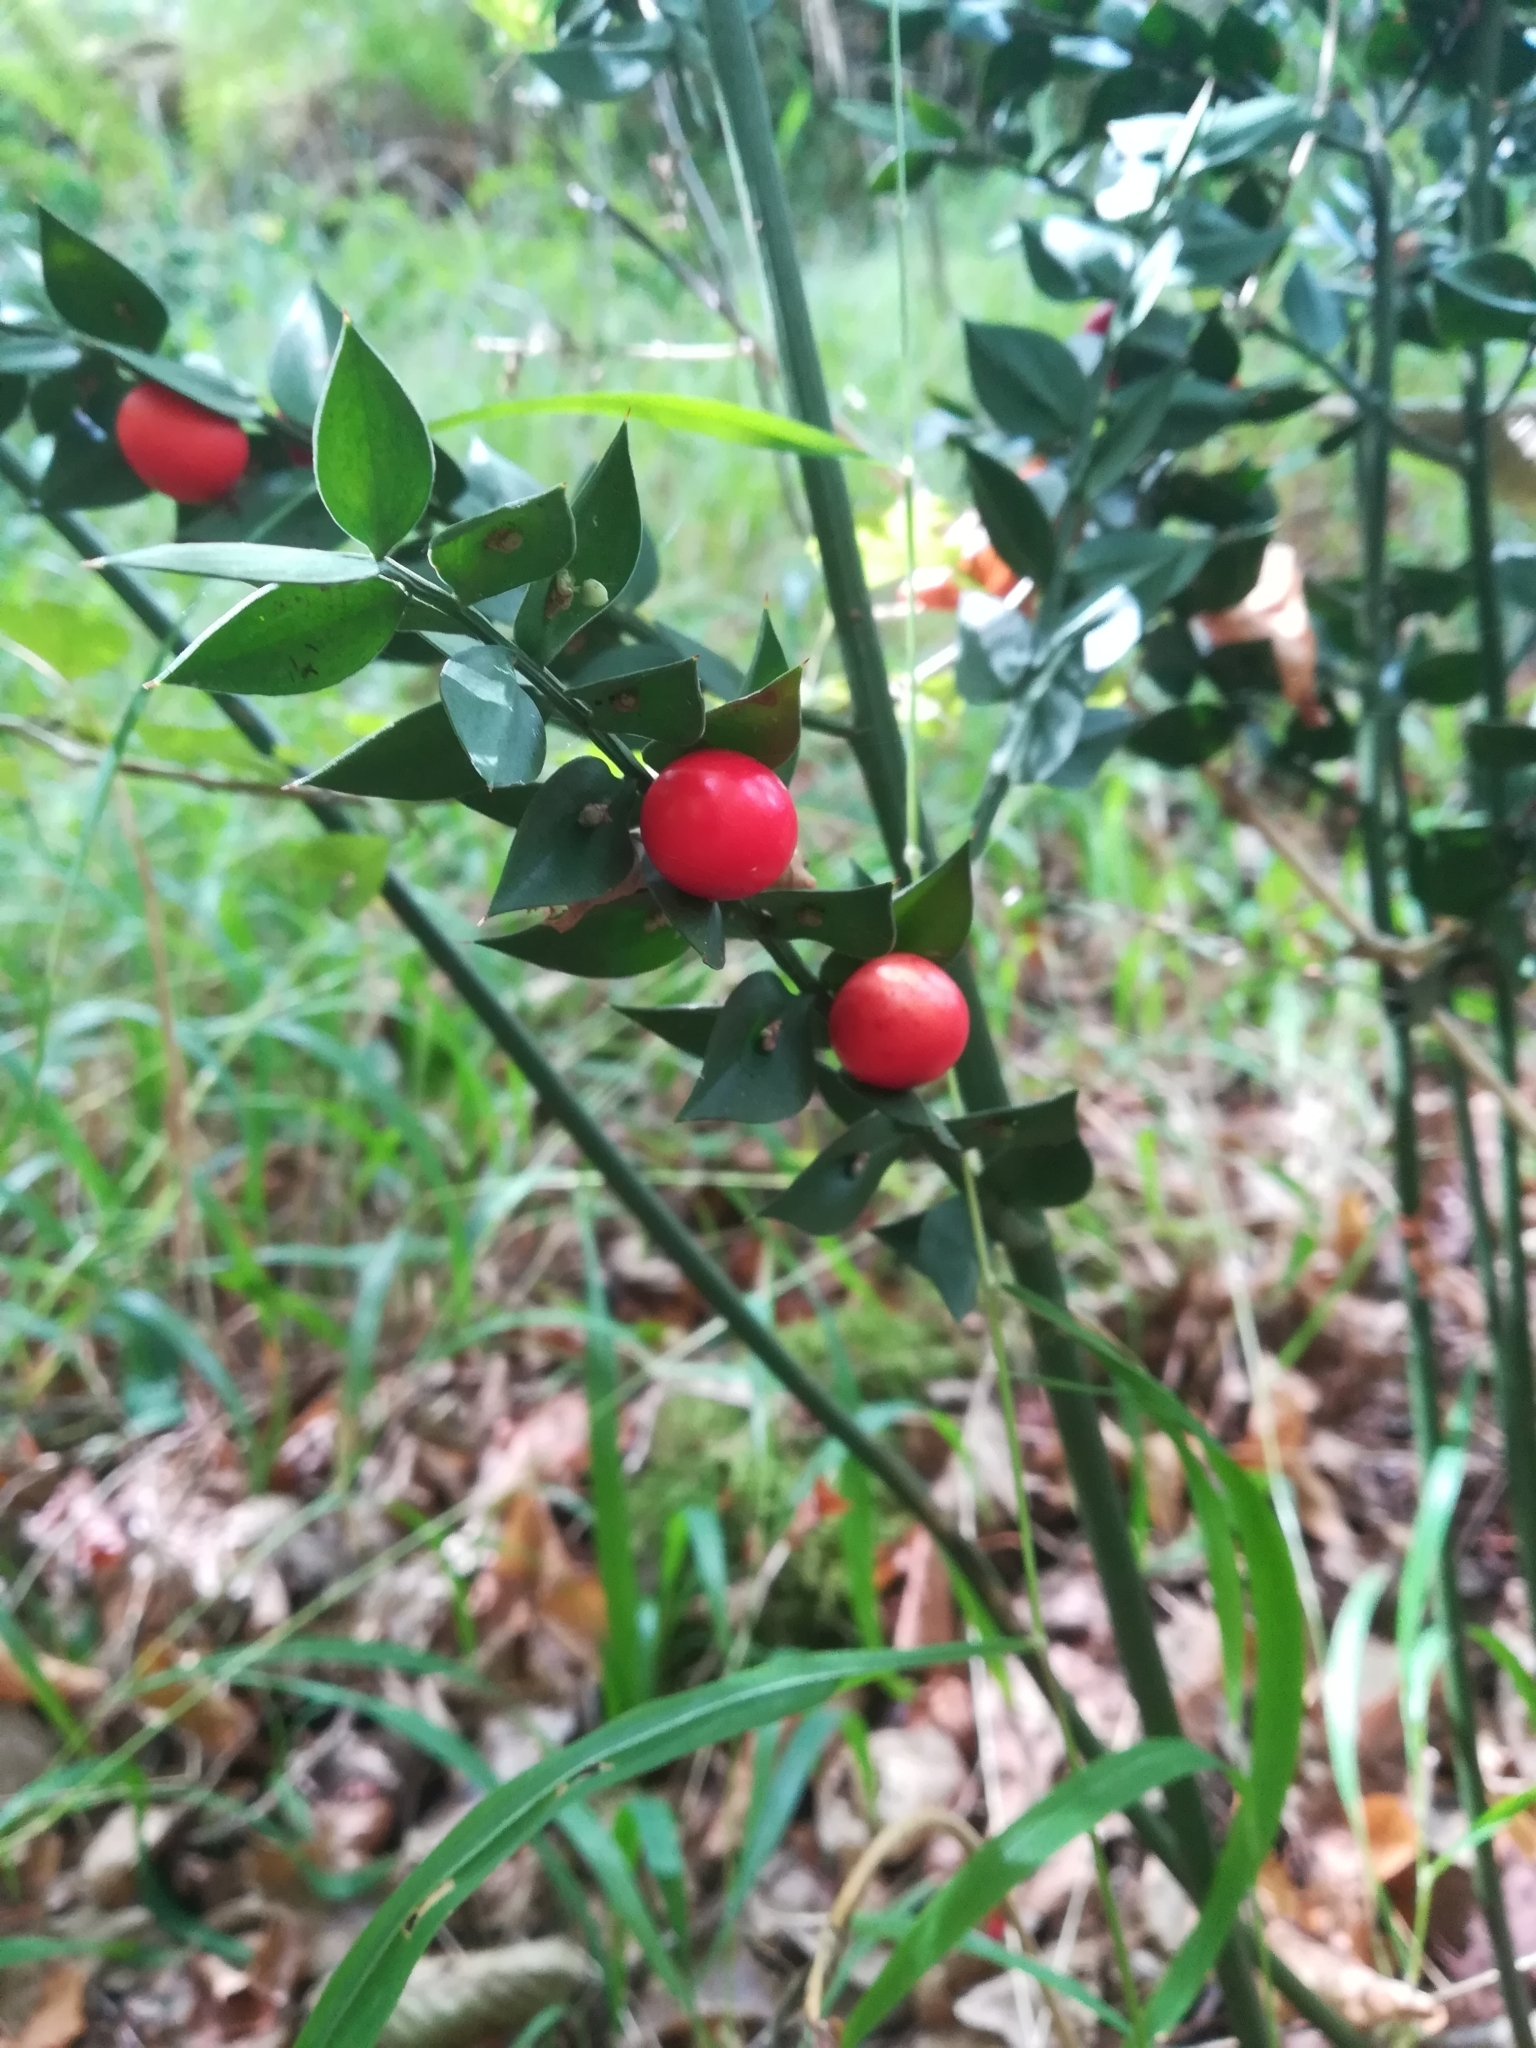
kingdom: Plantae
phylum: Tracheophyta
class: Liliopsida
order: Asparagales
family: Asparagaceae
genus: Ruscus
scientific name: Ruscus aculeatus
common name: Butcher's-broom
